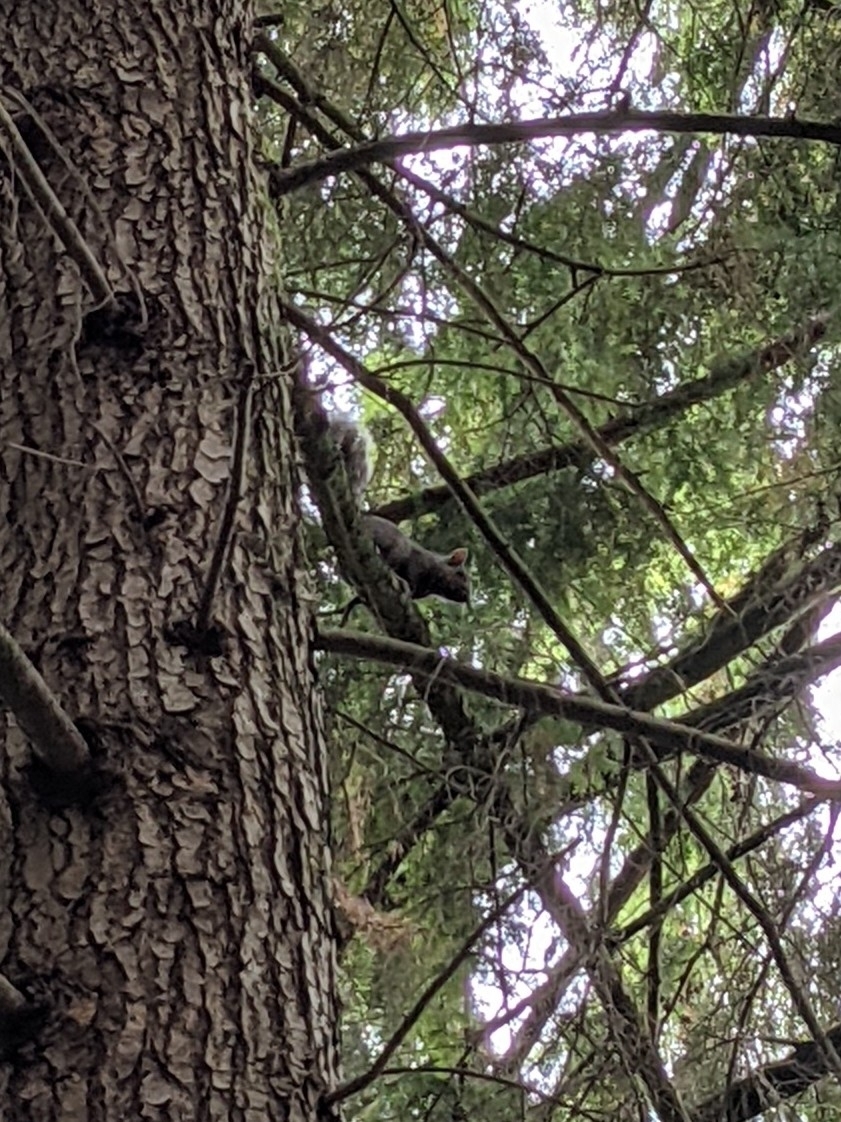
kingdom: Animalia
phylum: Chordata
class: Mammalia
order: Rodentia
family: Sciuridae
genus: Sciurus
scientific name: Sciurus carolinensis
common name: Eastern gray squirrel
